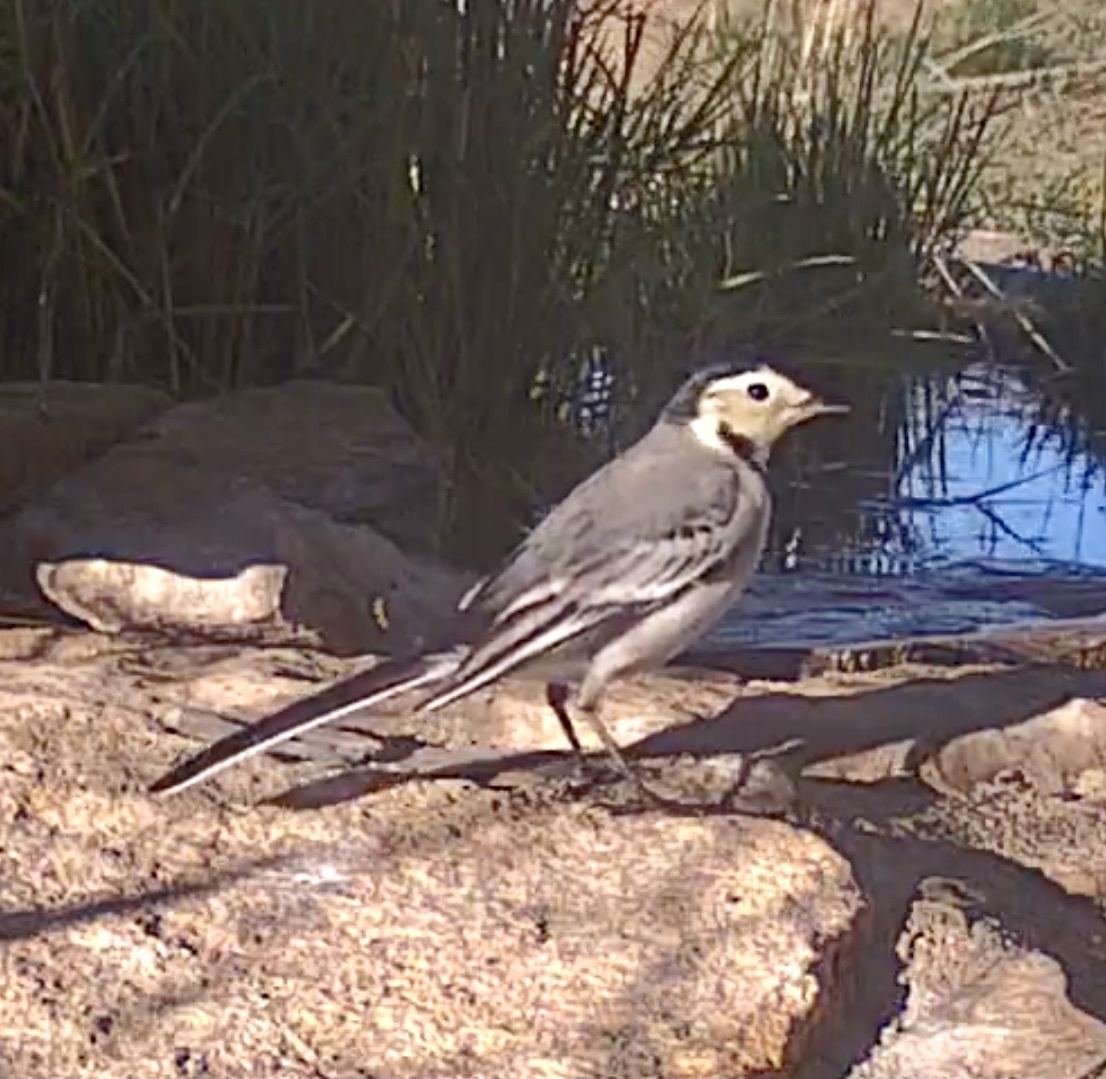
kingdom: Animalia
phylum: Chordata
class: Aves
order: Passeriformes
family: Motacillidae
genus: Motacilla
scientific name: Motacilla alba
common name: White wagtail
